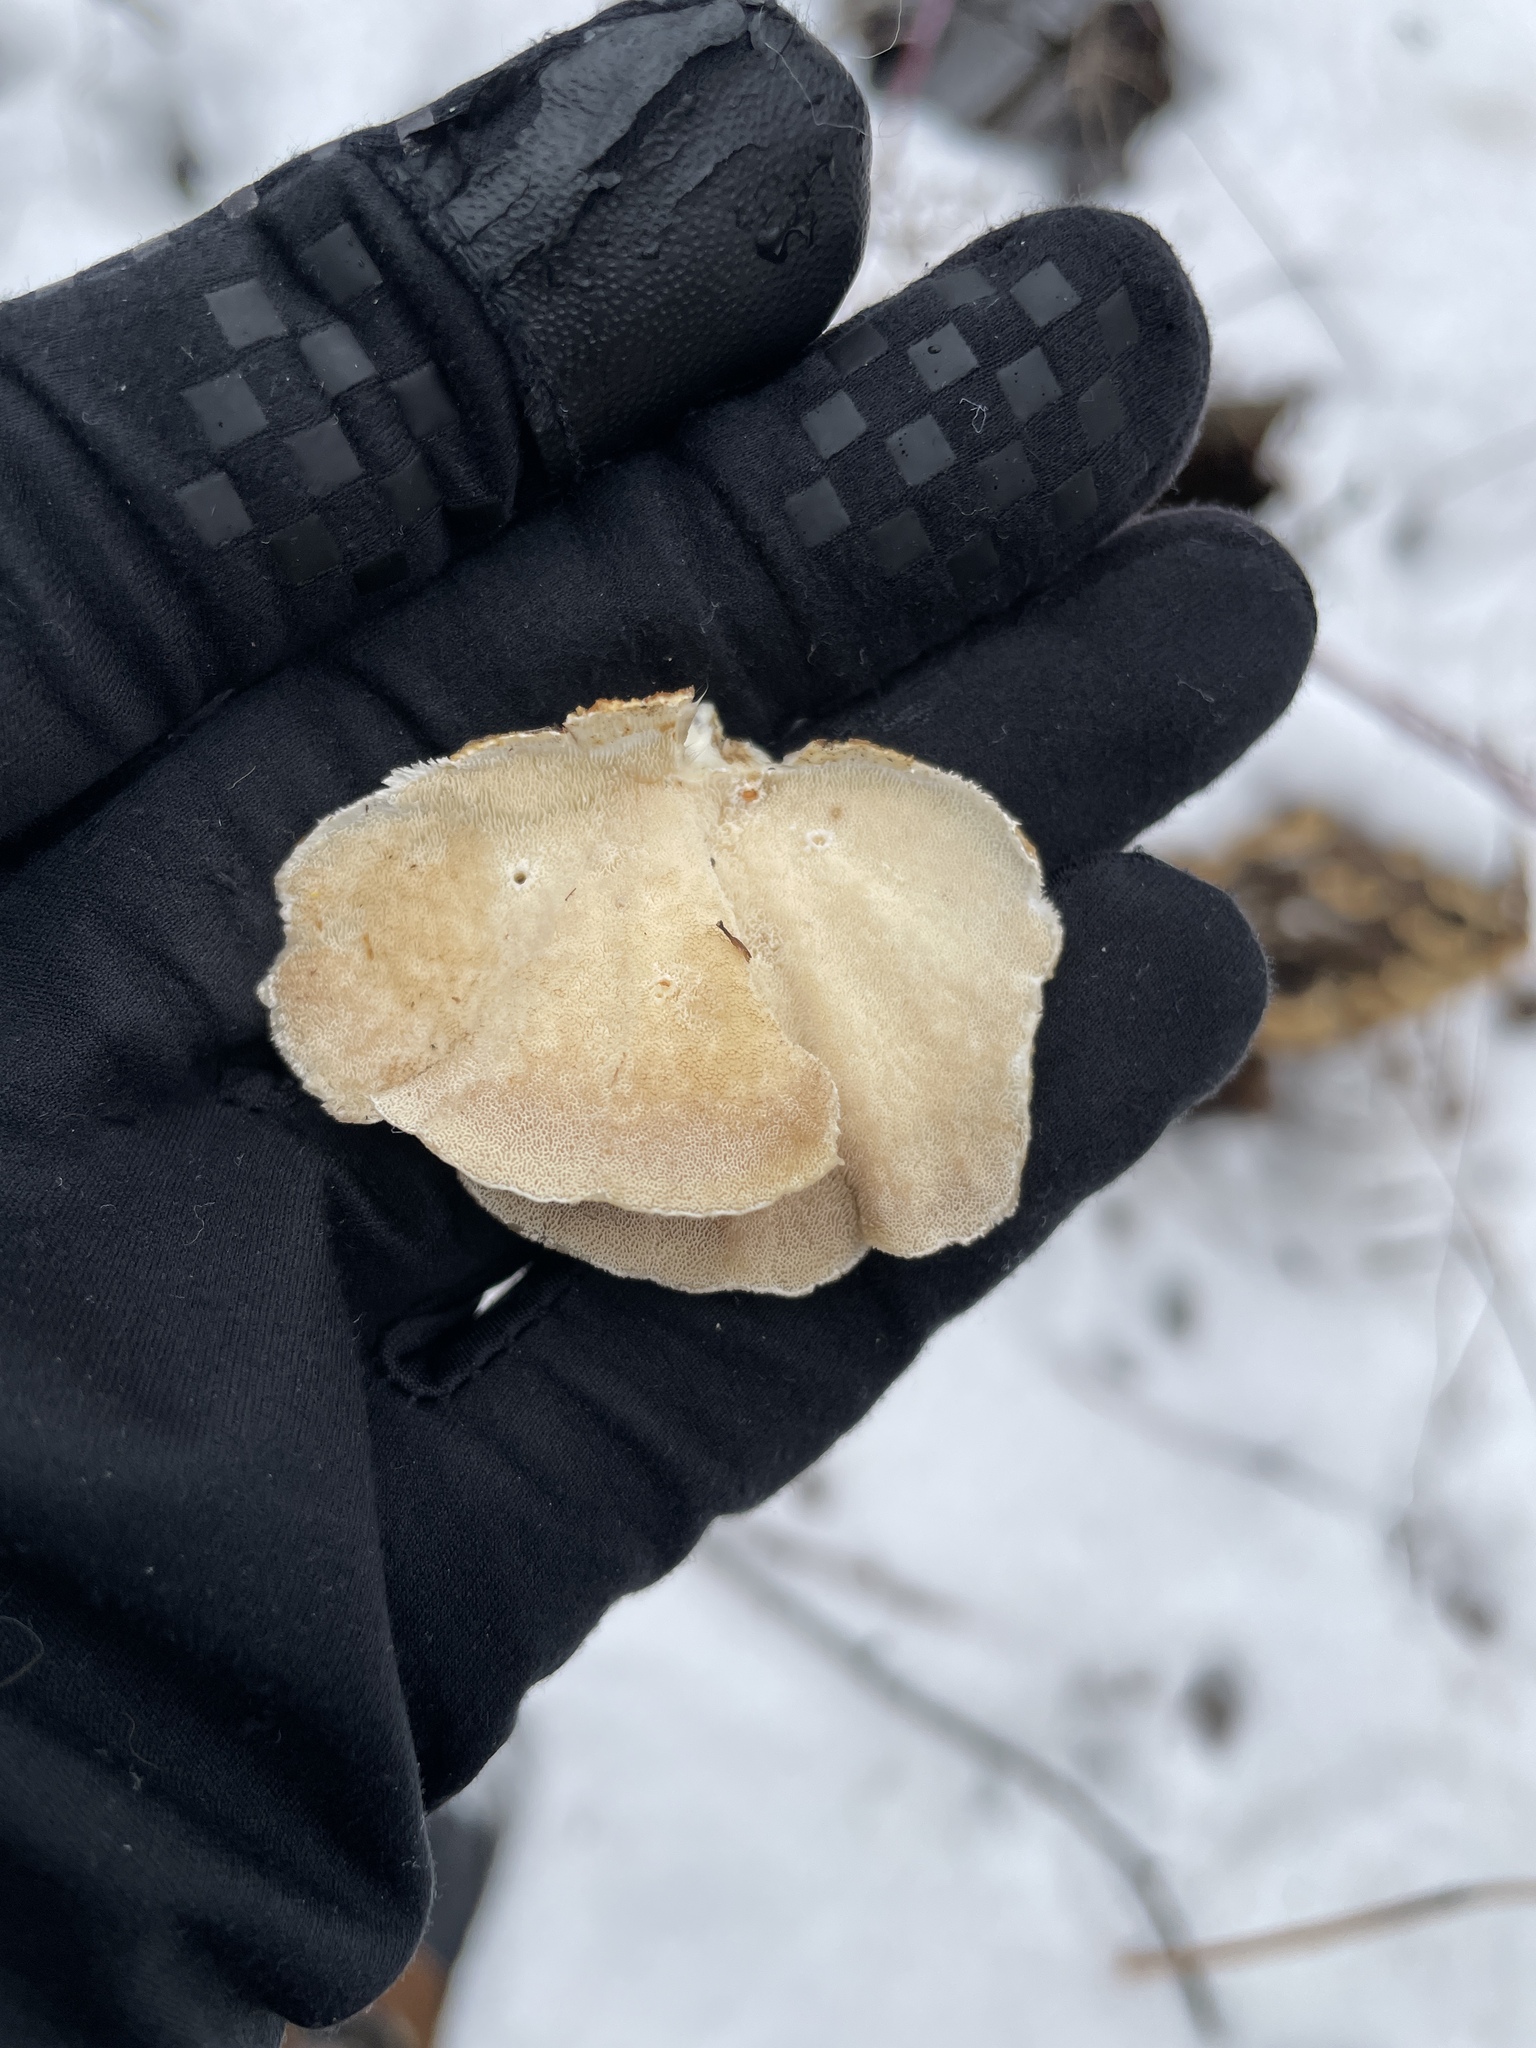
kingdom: Fungi
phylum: Basidiomycota
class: Agaricomycetes
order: Polyporales
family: Polyporaceae
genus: Trametes
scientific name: Trametes versicolor
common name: Turkeytail
